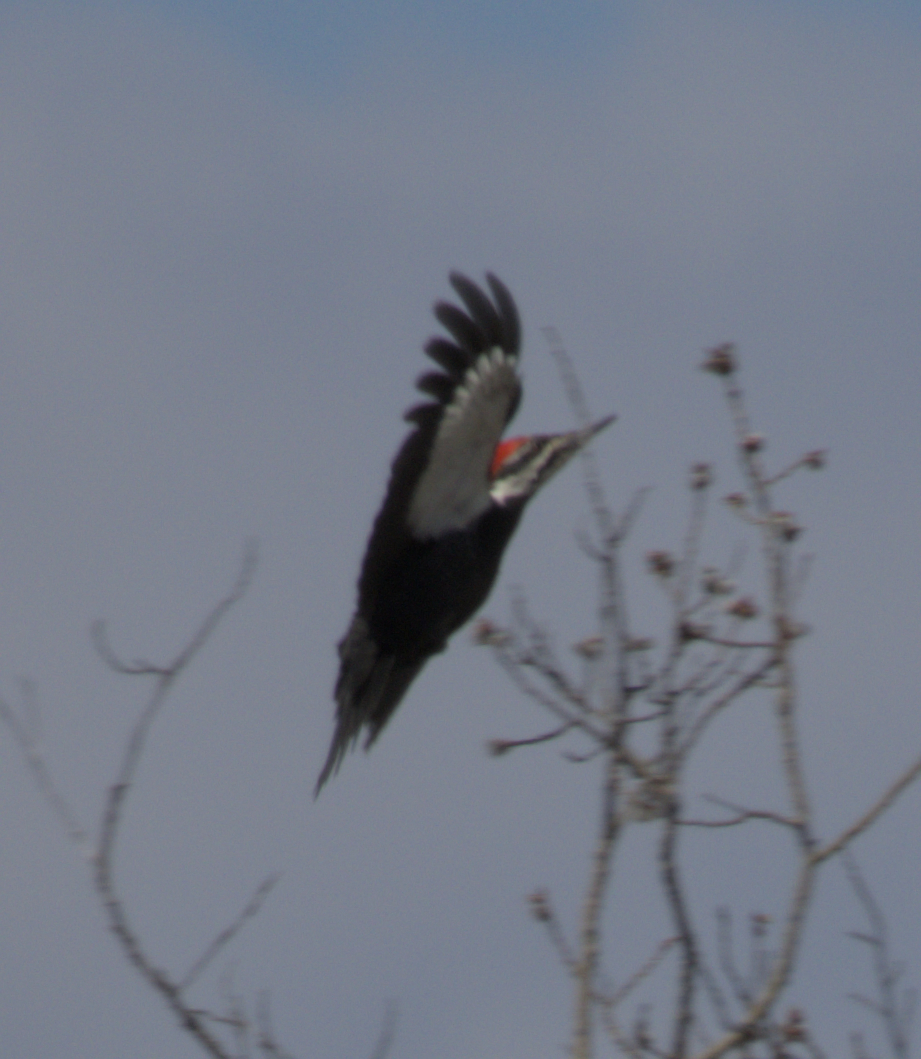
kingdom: Animalia
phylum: Chordata
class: Aves
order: Piciformes
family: Picidae
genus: Dryocopus
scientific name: Dryocopus pileatus
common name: Pileated woodpecker
